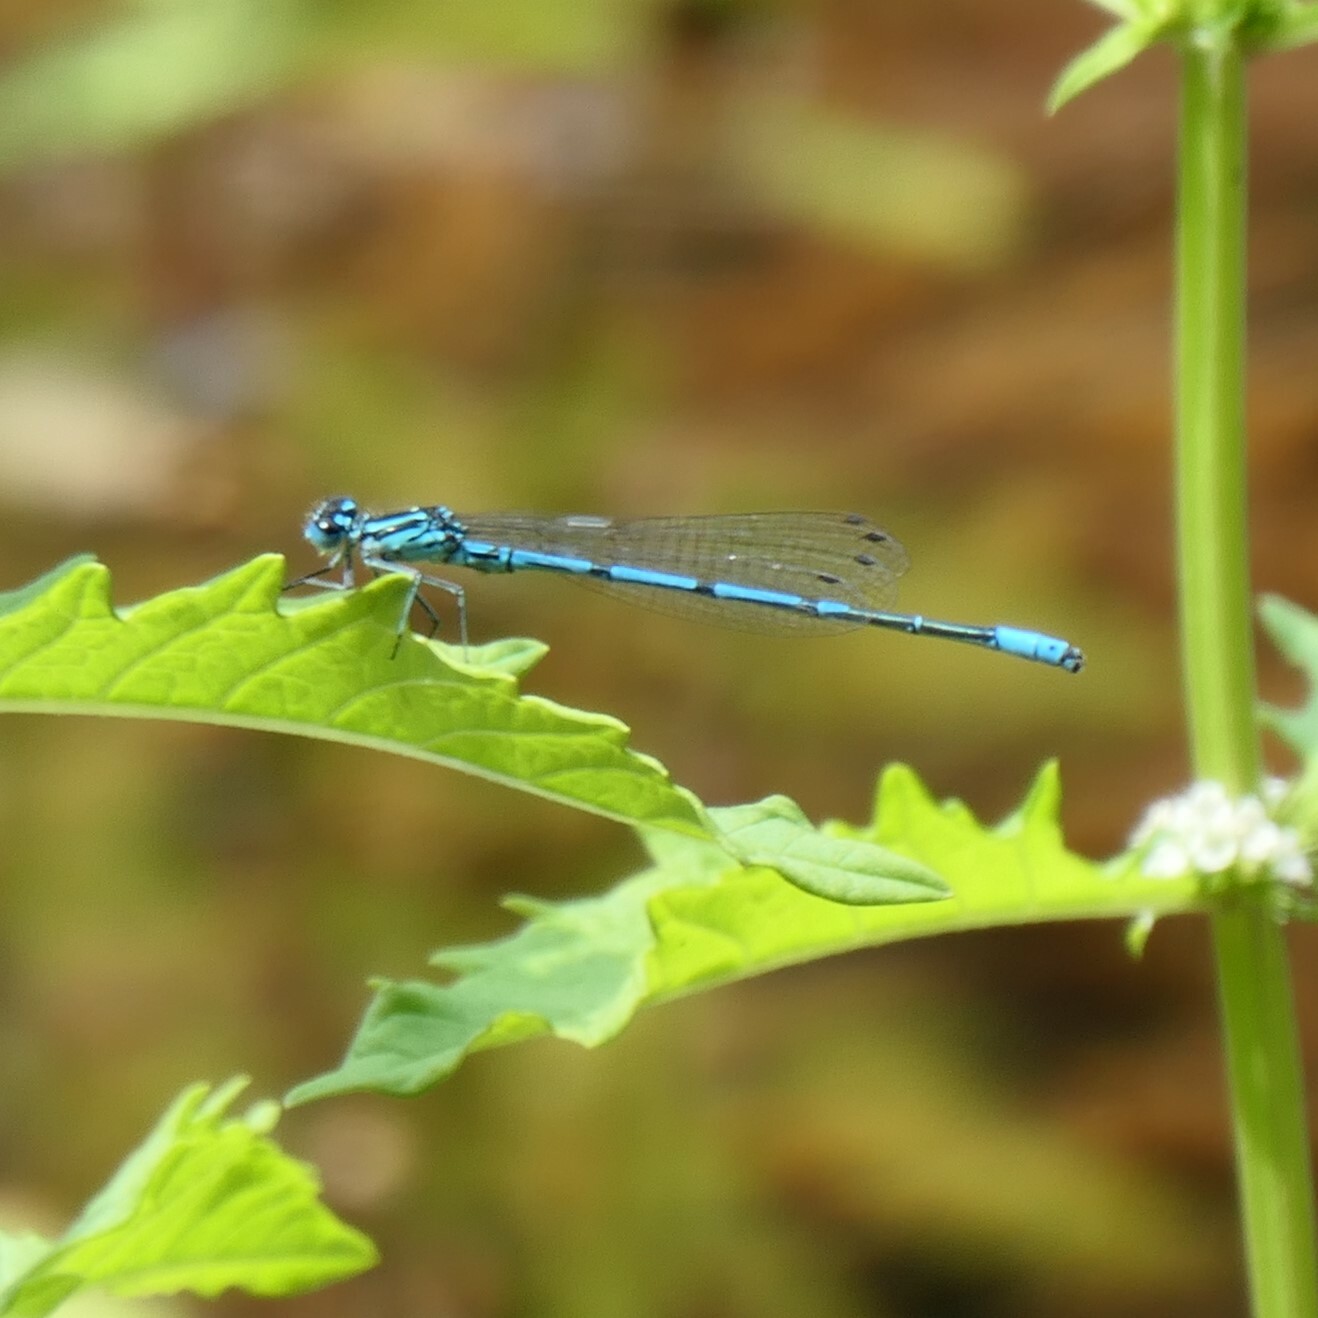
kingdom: Animalia
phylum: Arthropoda
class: Insecta
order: Odonata
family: Coenagrionidae
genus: Coenagrion
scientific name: Coenagrion puella
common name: Azure damselfly
